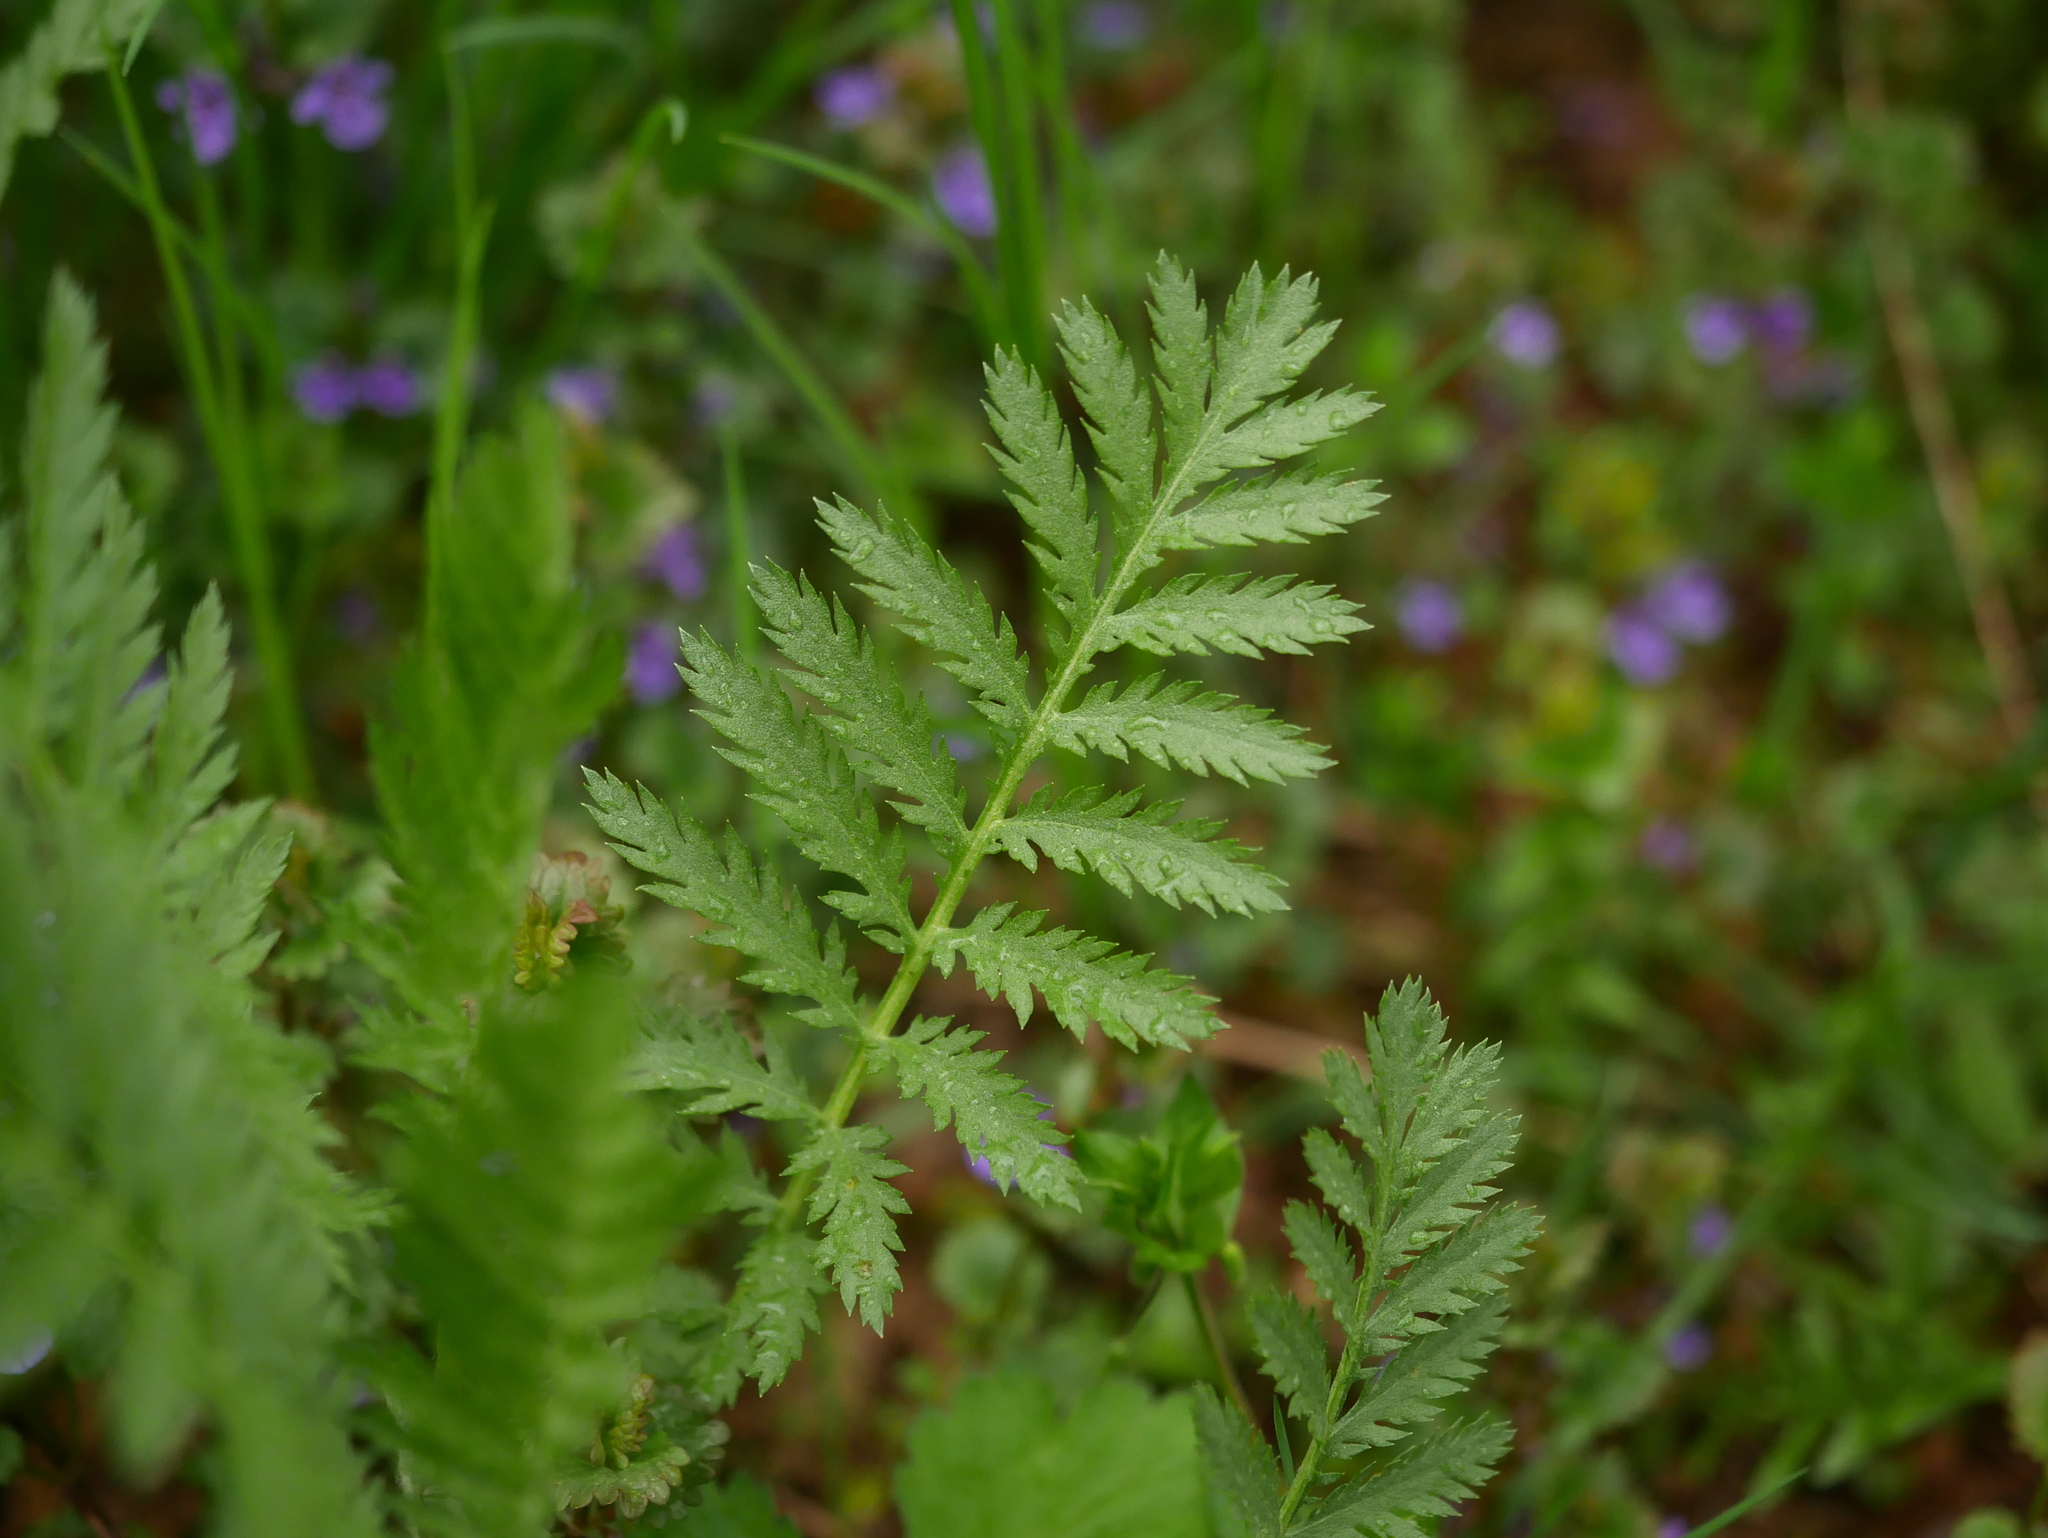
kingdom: Plantae
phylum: Tracheophyta
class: Magnoliopsida
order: Asterales
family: Asteraceae
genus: Tanacetum
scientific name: Tanacetum vulgare
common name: Common tansy
